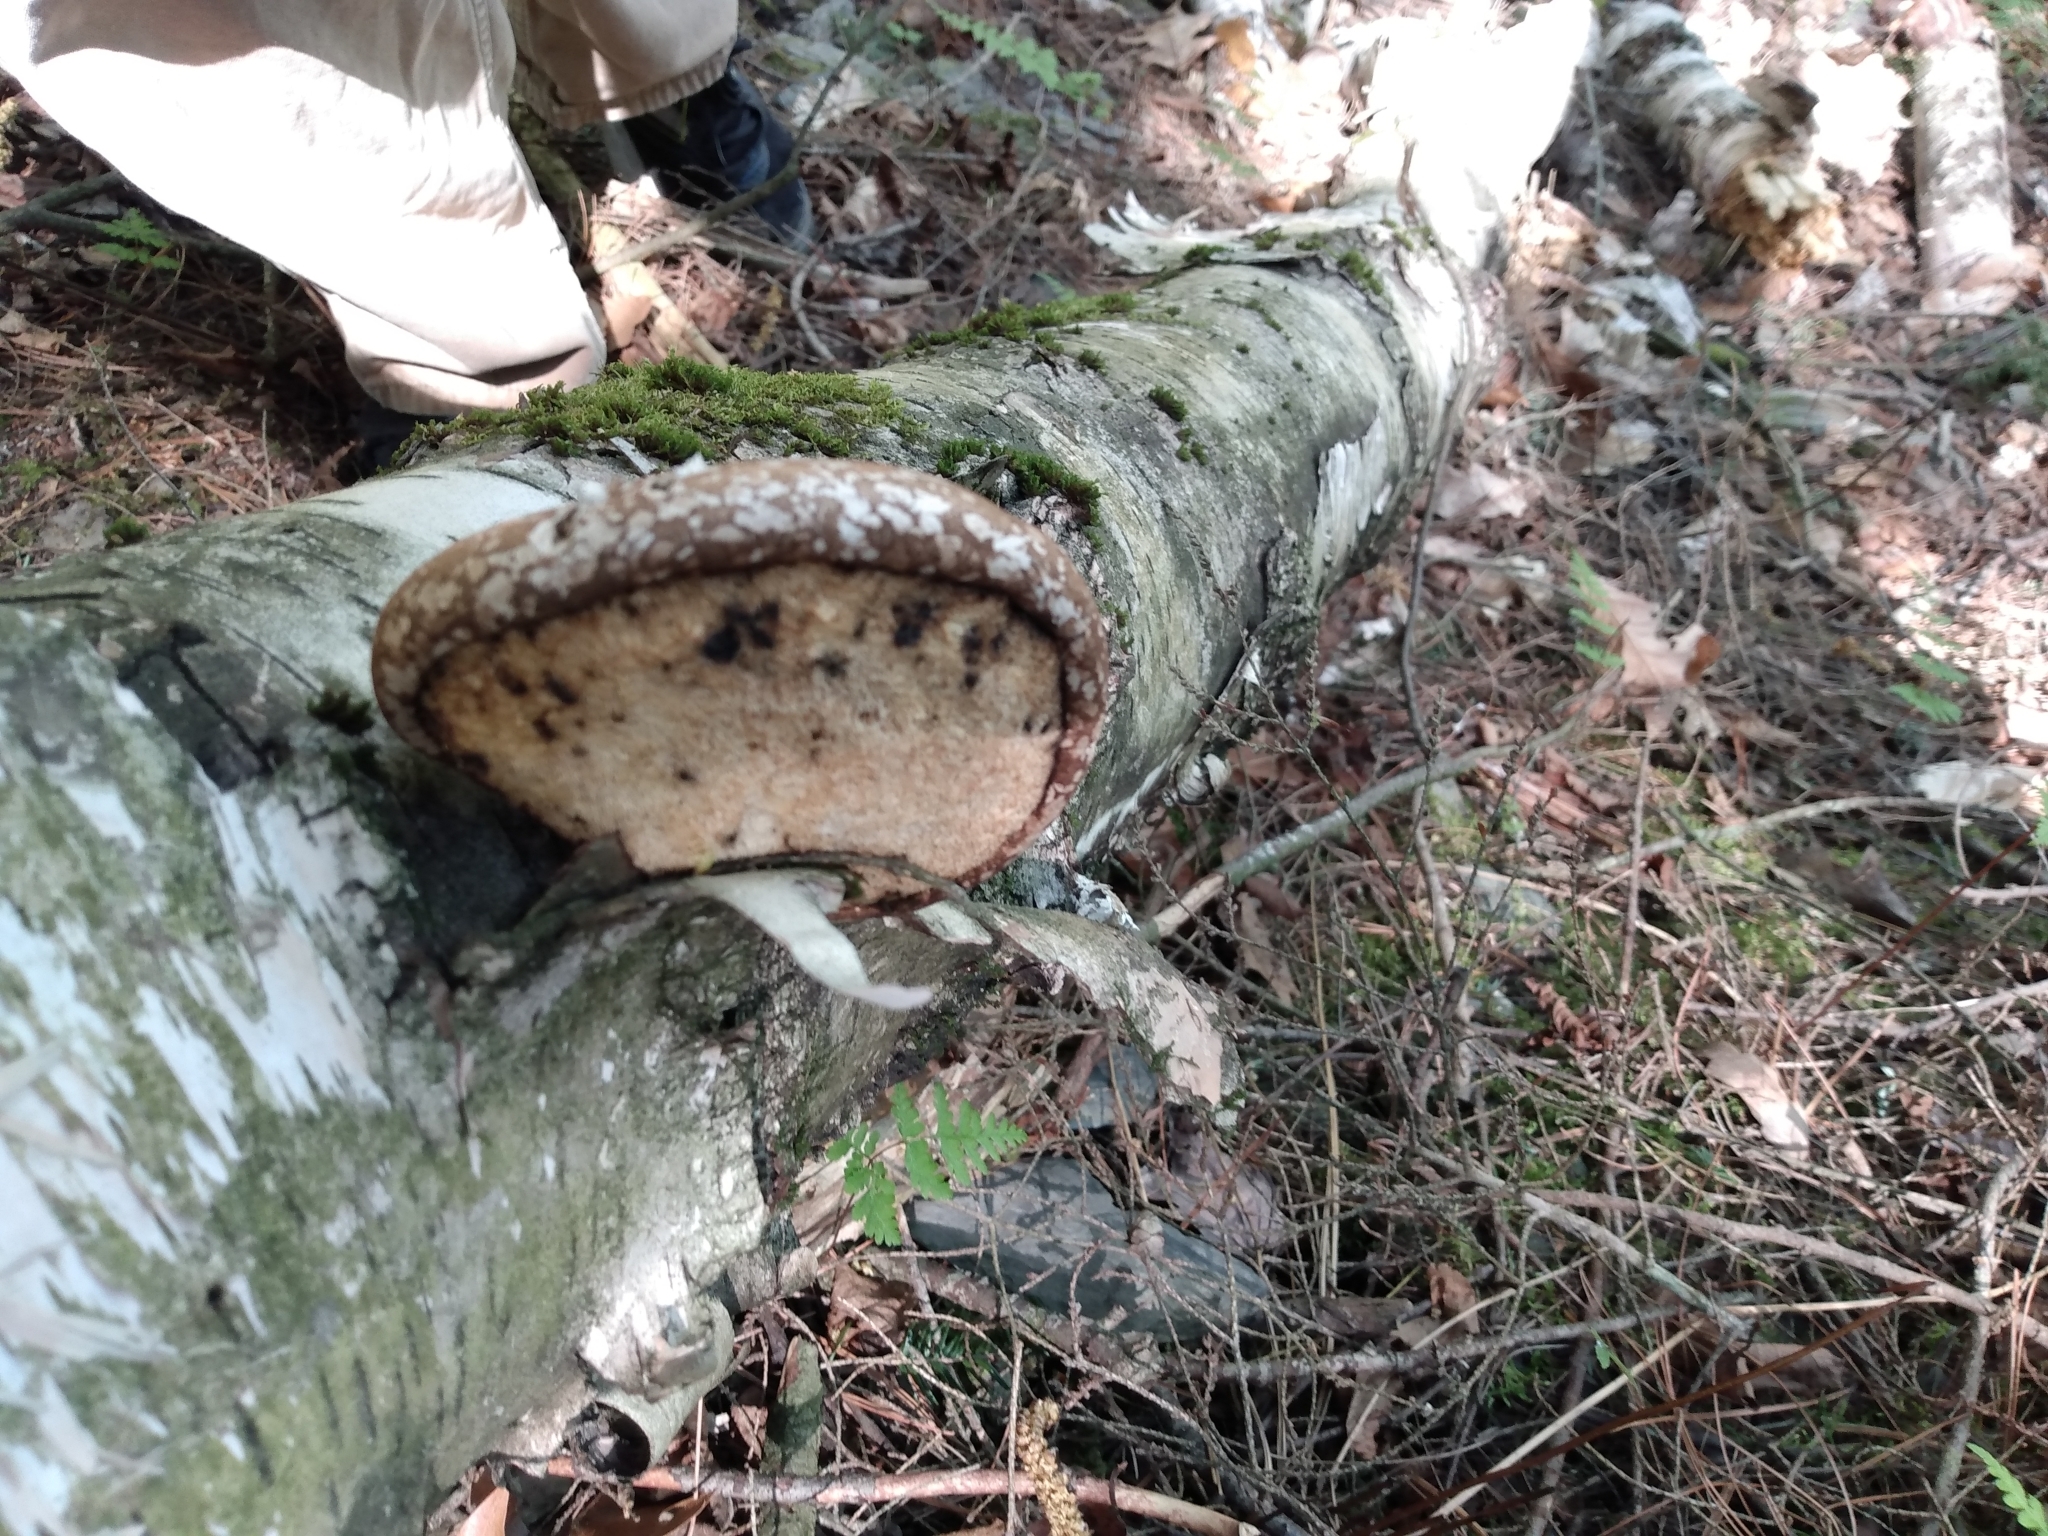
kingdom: Fungi
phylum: Basidiomycota
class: Agaricomycetes
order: Polyporales
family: Fomitopsidaceae
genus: Fomitopsis
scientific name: Fomitopsis betulina
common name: Birch polypore
